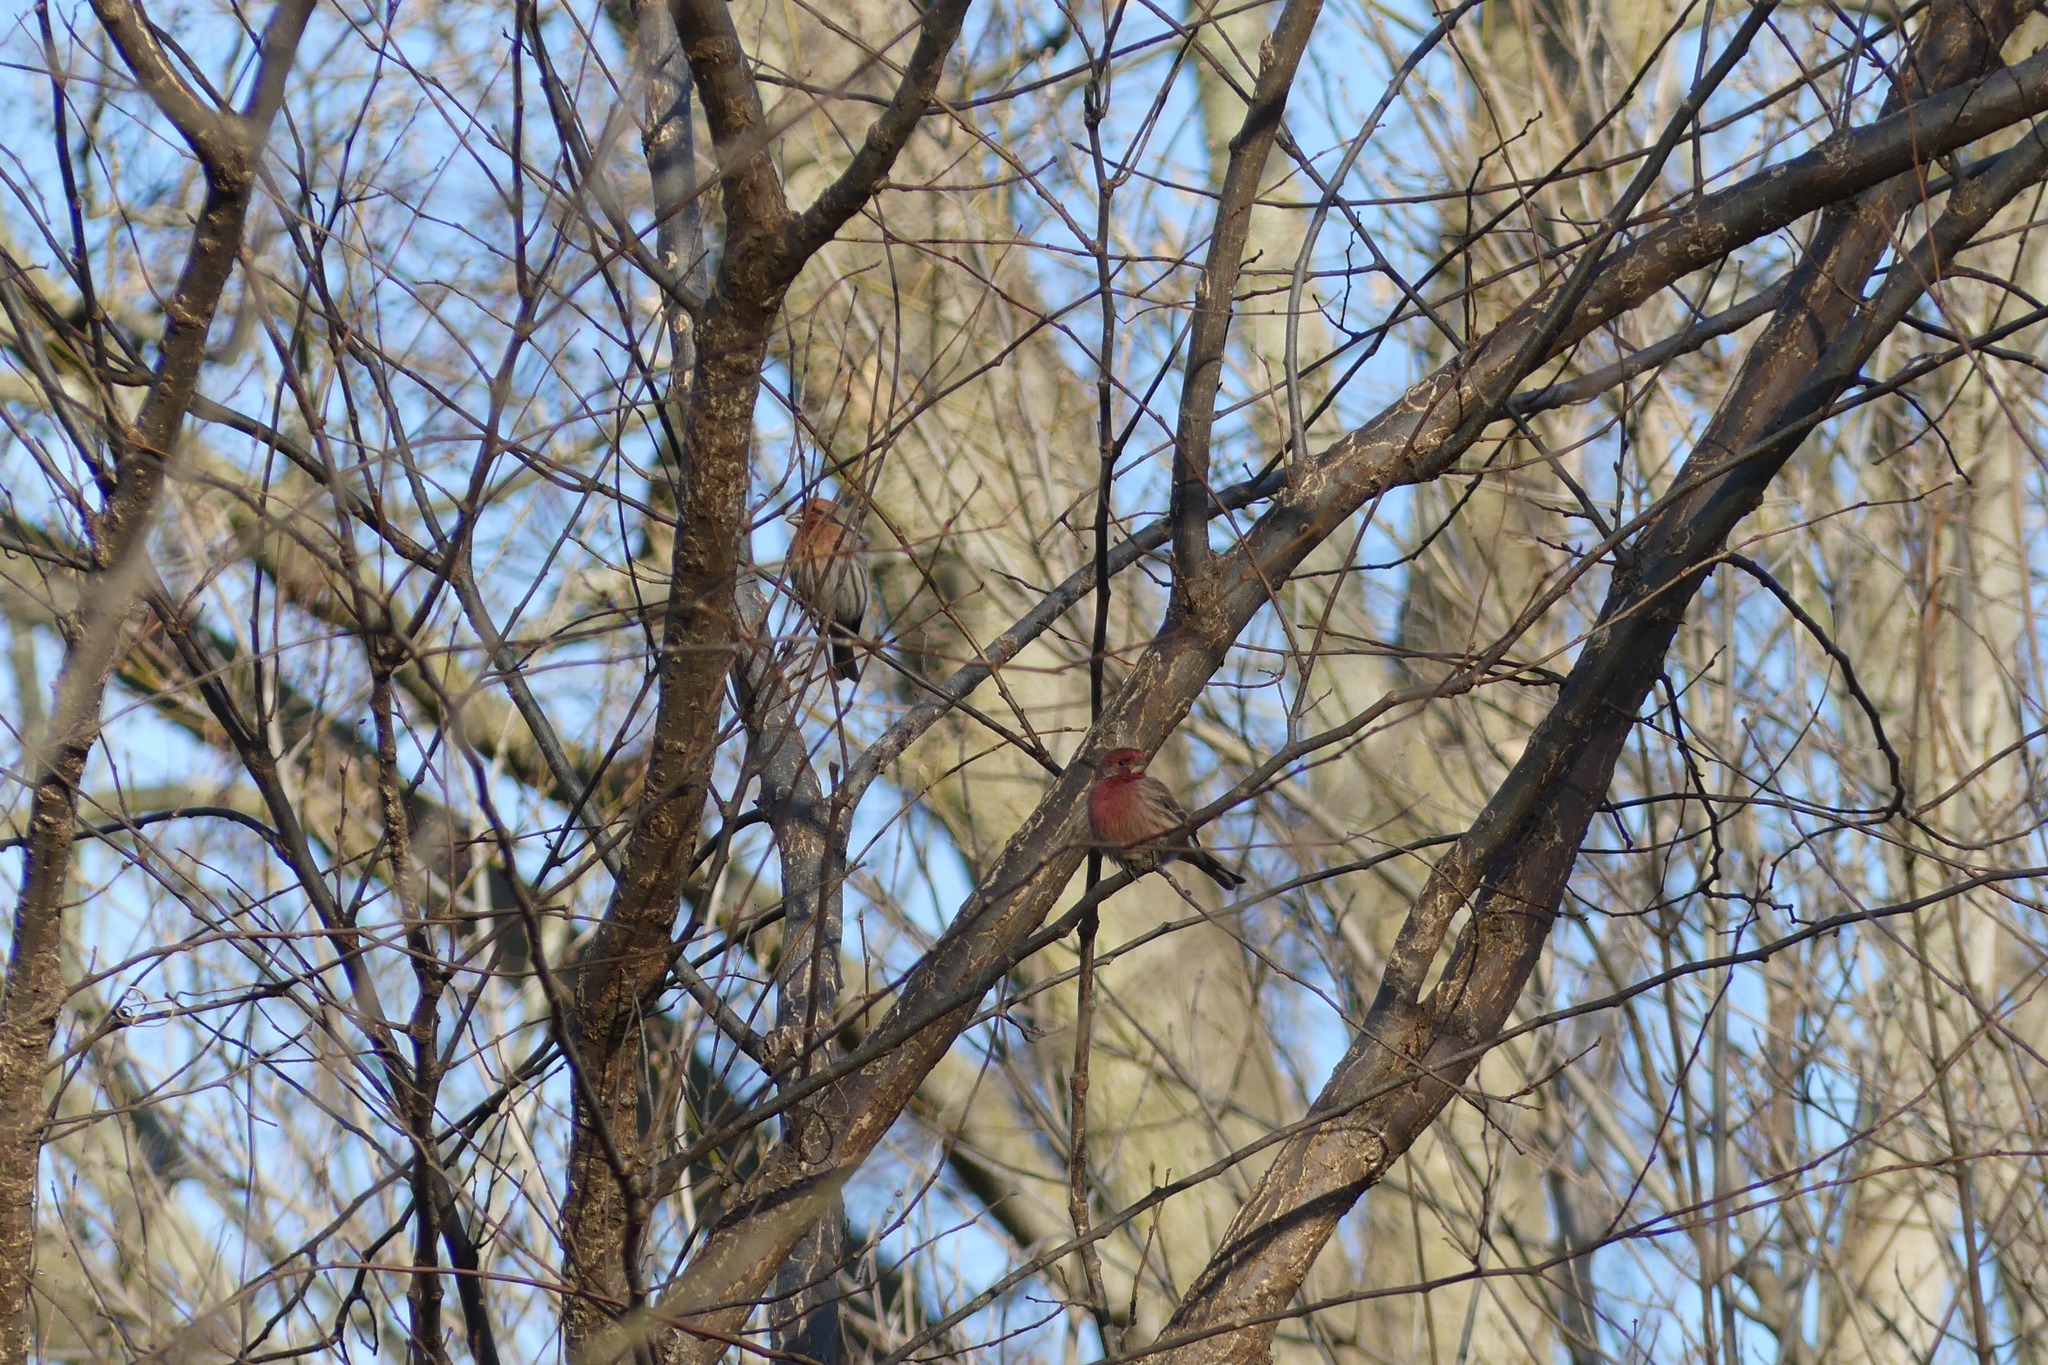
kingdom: Animalia
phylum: Chordata
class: Aves
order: Passeriformes
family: Fringillidae
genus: Haemorhous
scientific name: Haemorhous mexicanus
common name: House finch
